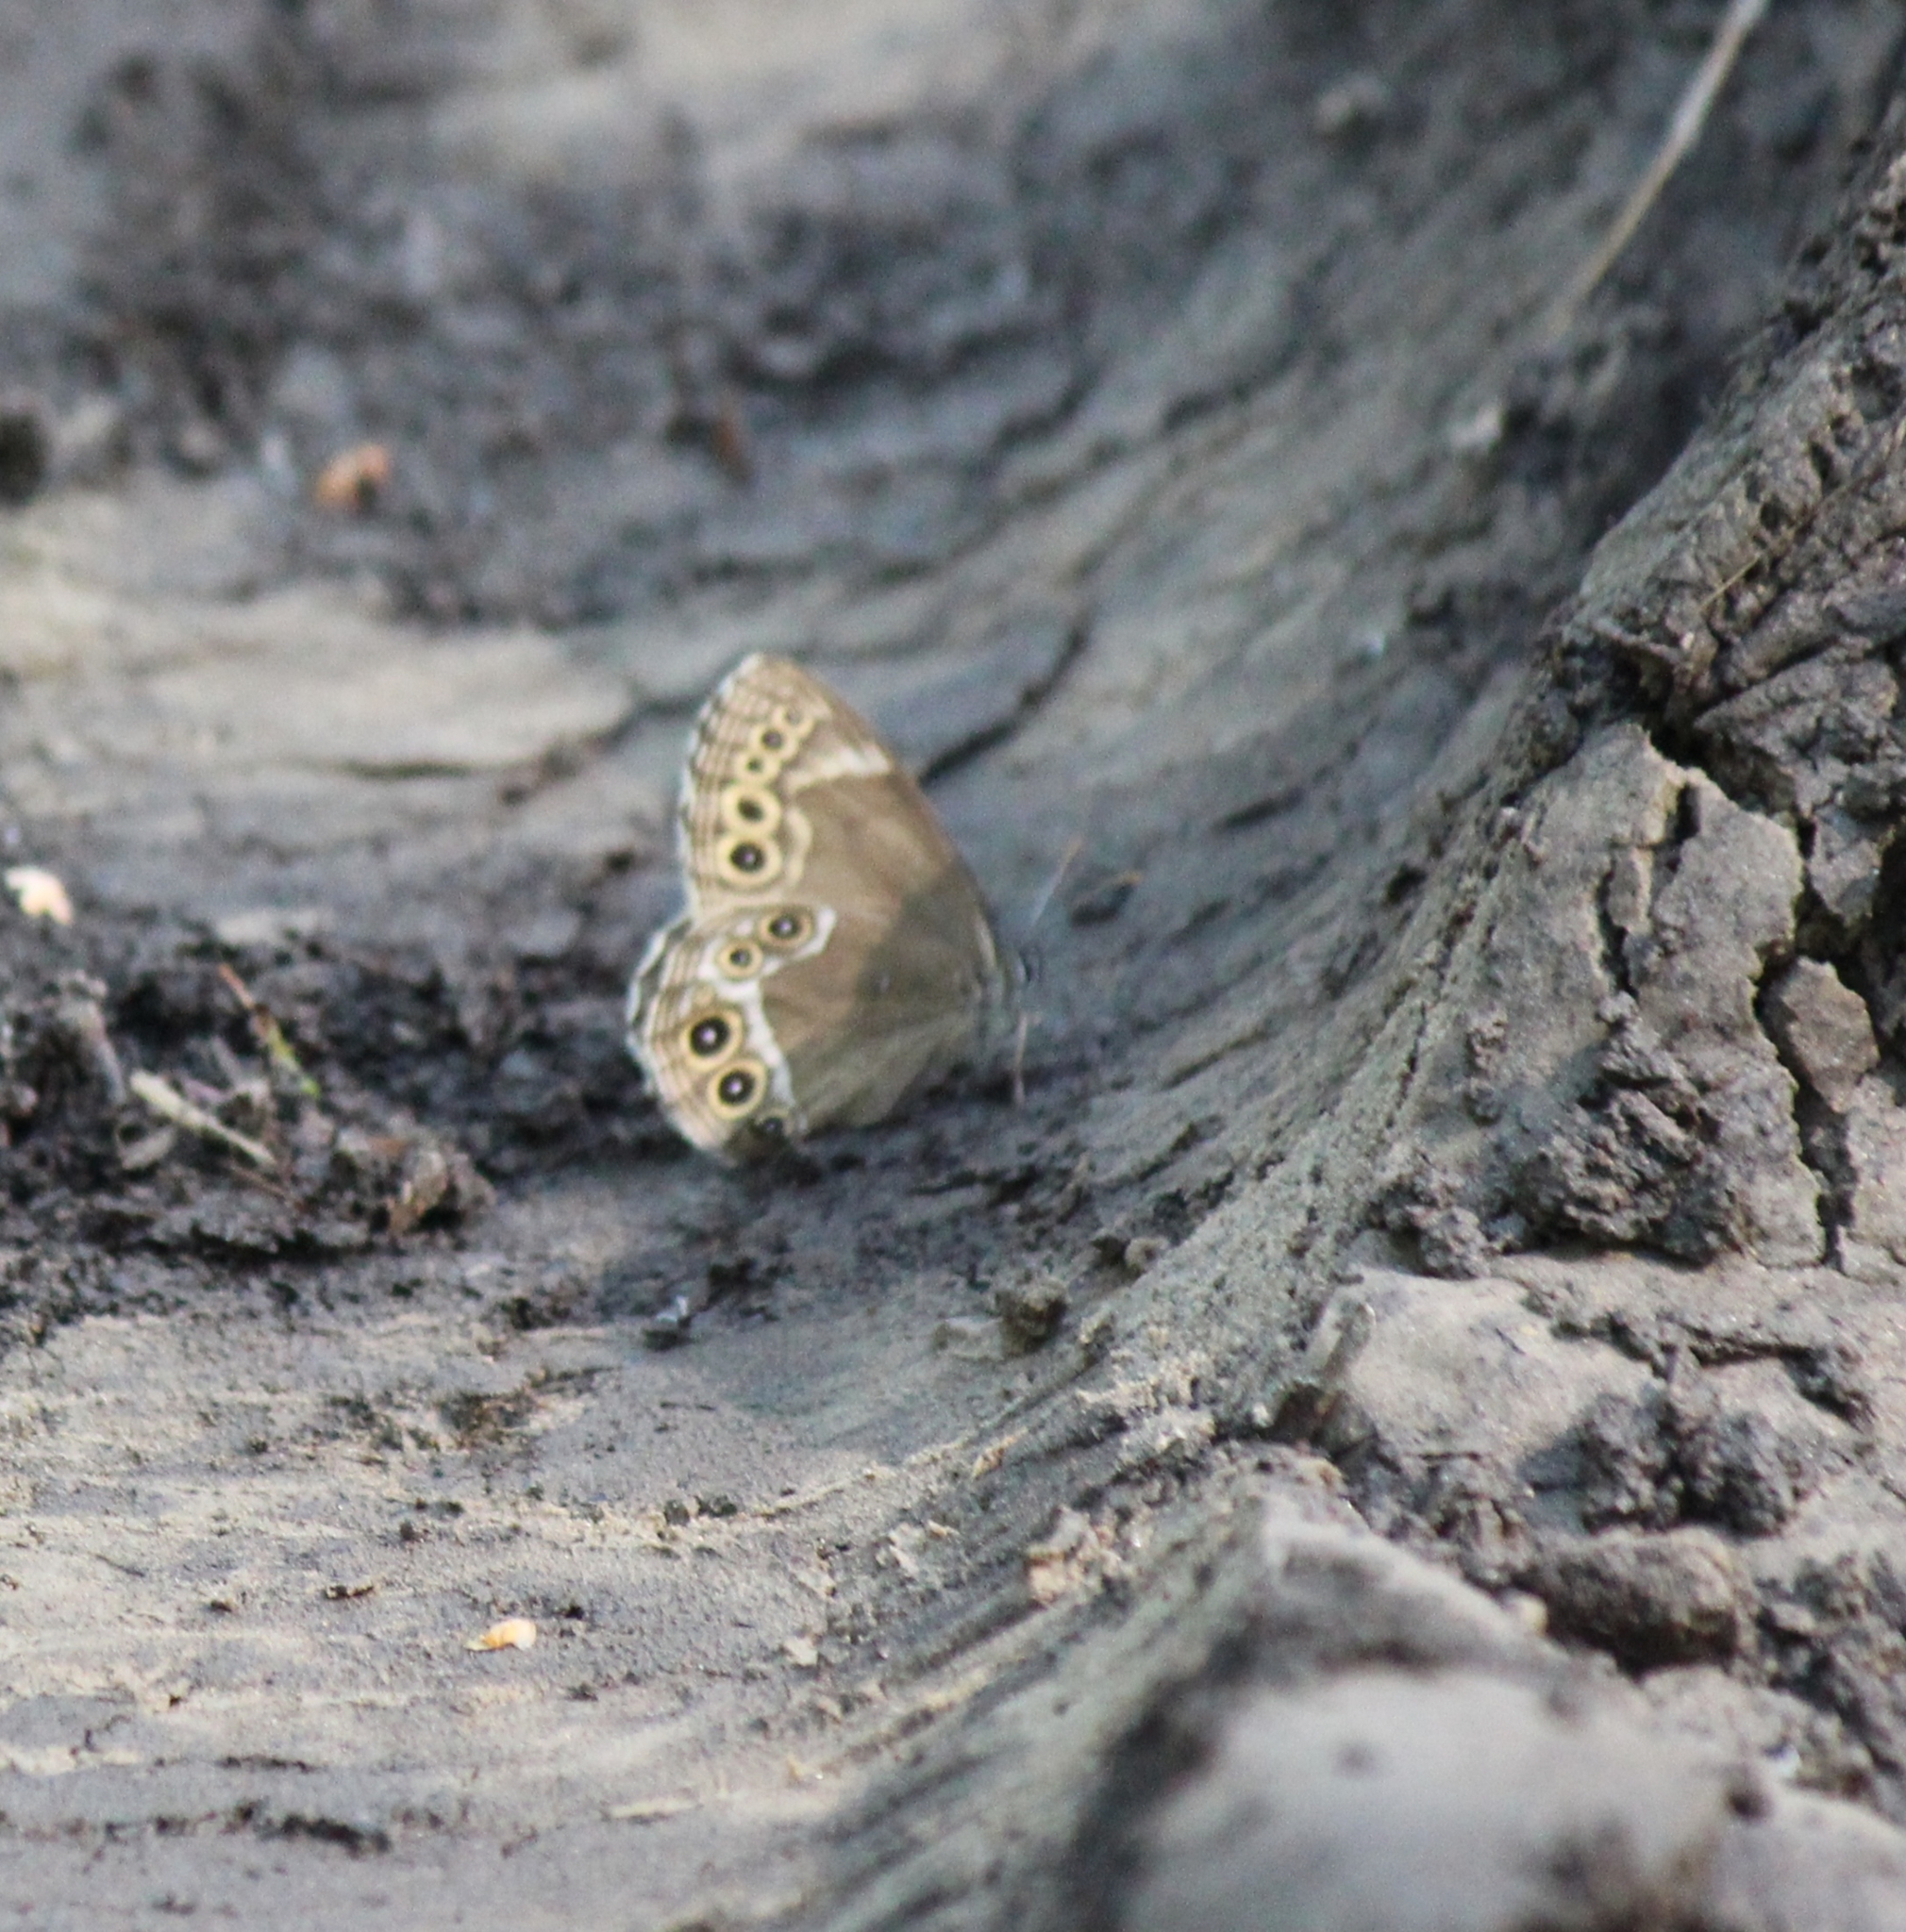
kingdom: Animalia
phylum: Arthropoda
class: Insecta
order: Lepidoptera
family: Nymphalidae
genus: Pararge
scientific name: Pararge Lopinga achine
